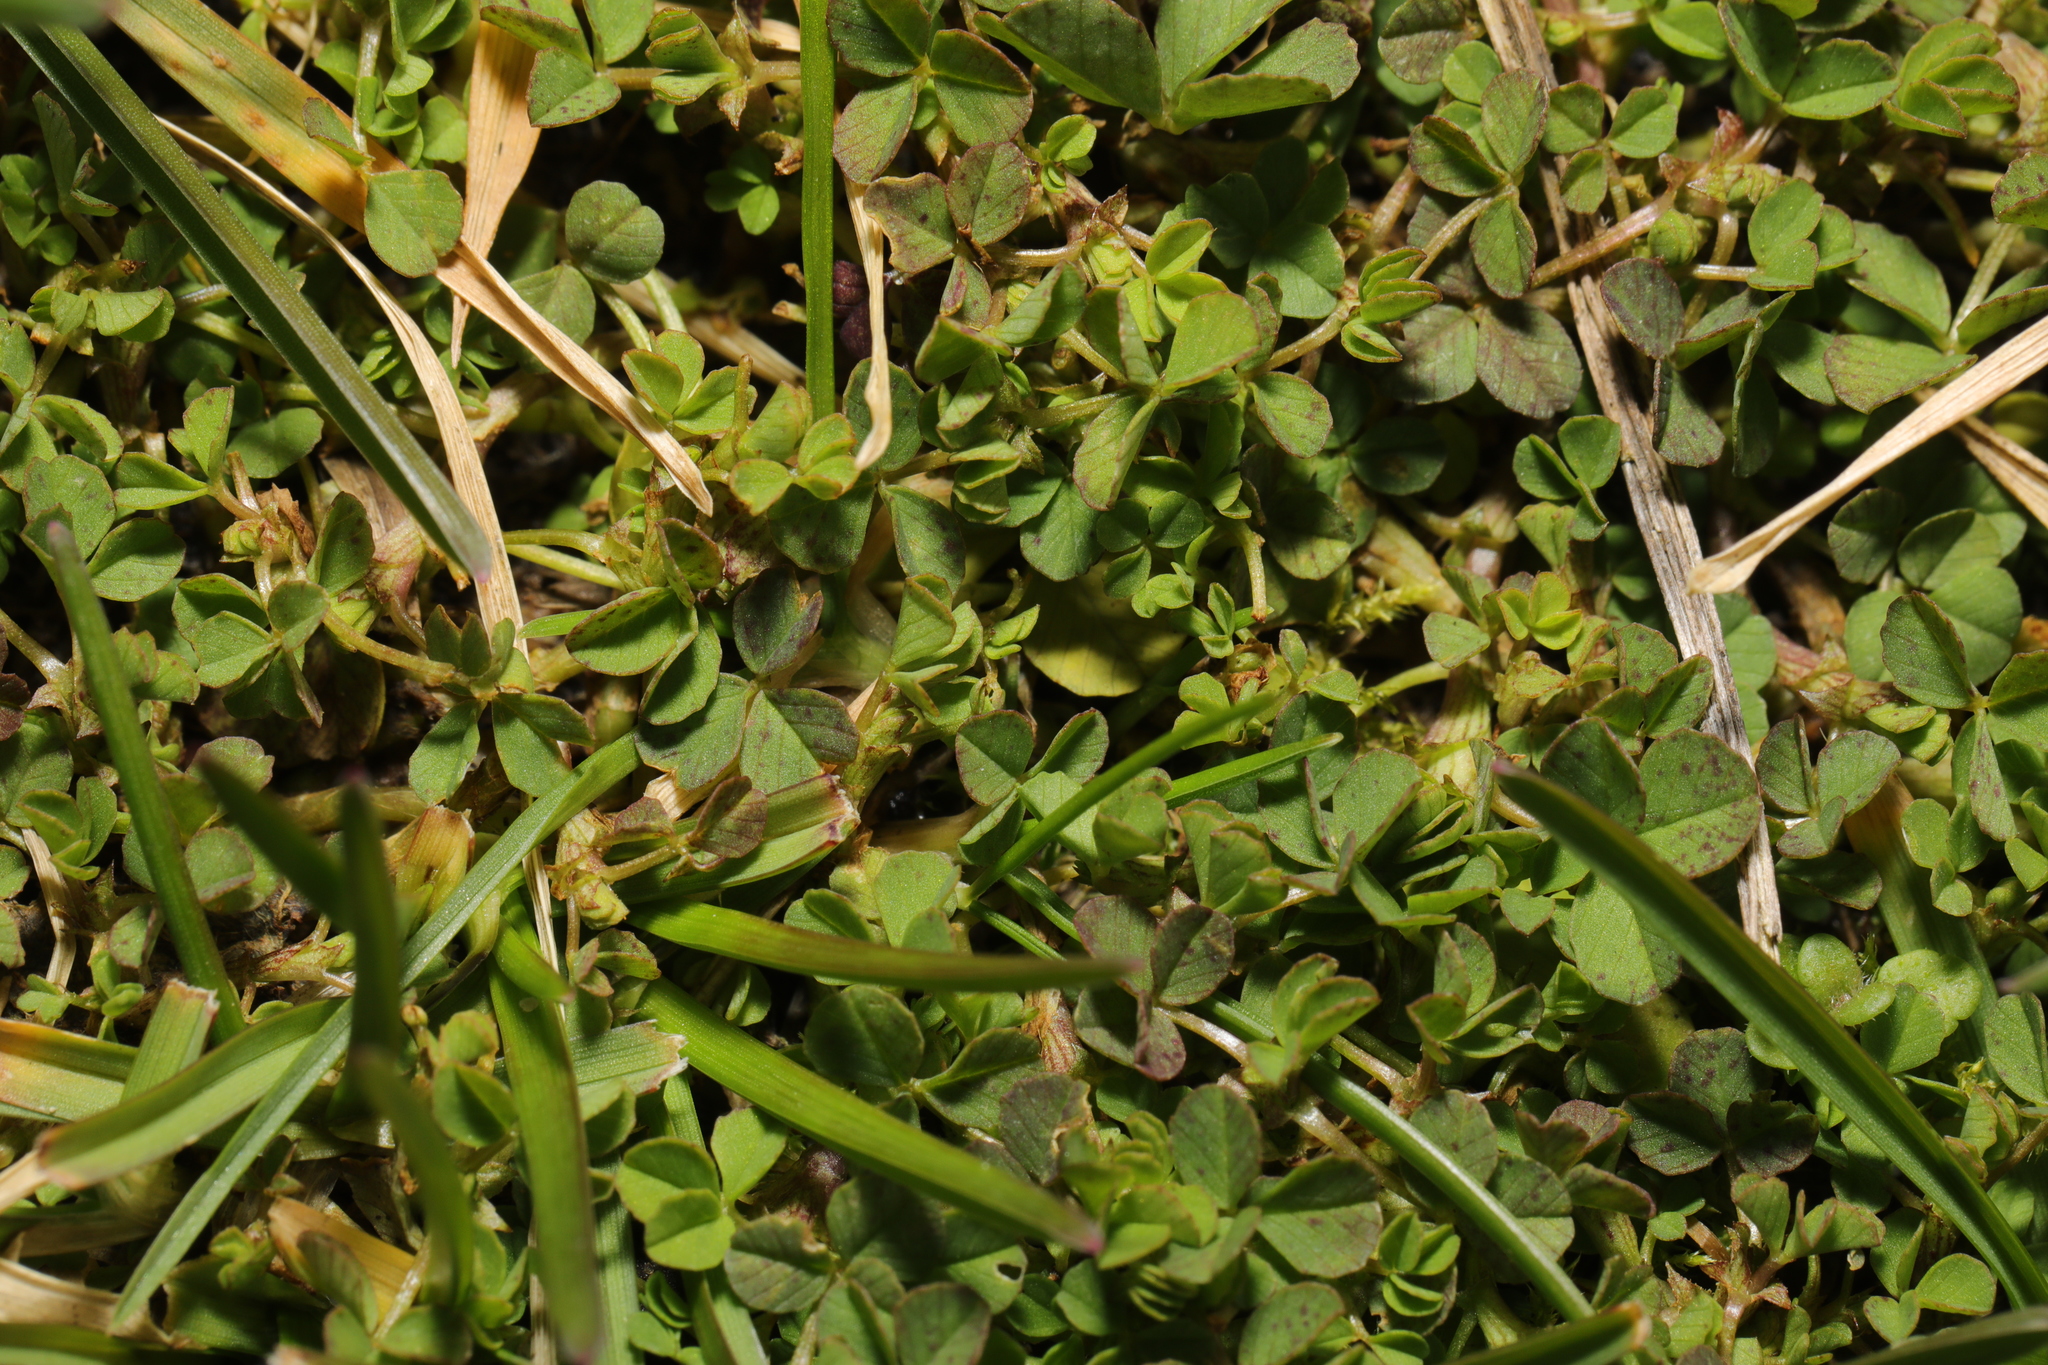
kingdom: Plantae
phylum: Tracheophyta
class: Magnoliopsida
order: Fabales
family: Fabaceae
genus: Trifolium
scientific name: Trifolium dubium
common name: Suckling clover
